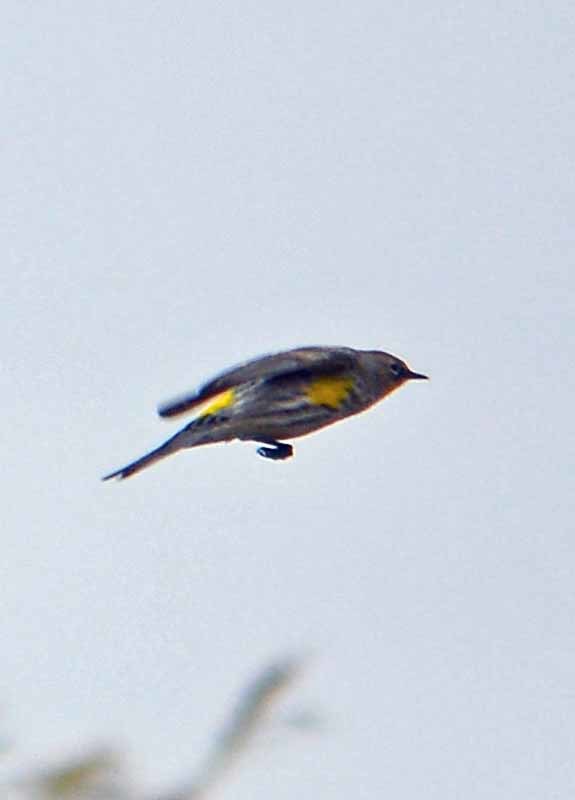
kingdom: Animalia
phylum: Chordata
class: Aves
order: Passeriformes
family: Parulidae
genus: Setophaga
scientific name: Setophaga coronata
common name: Myrtle warbler
